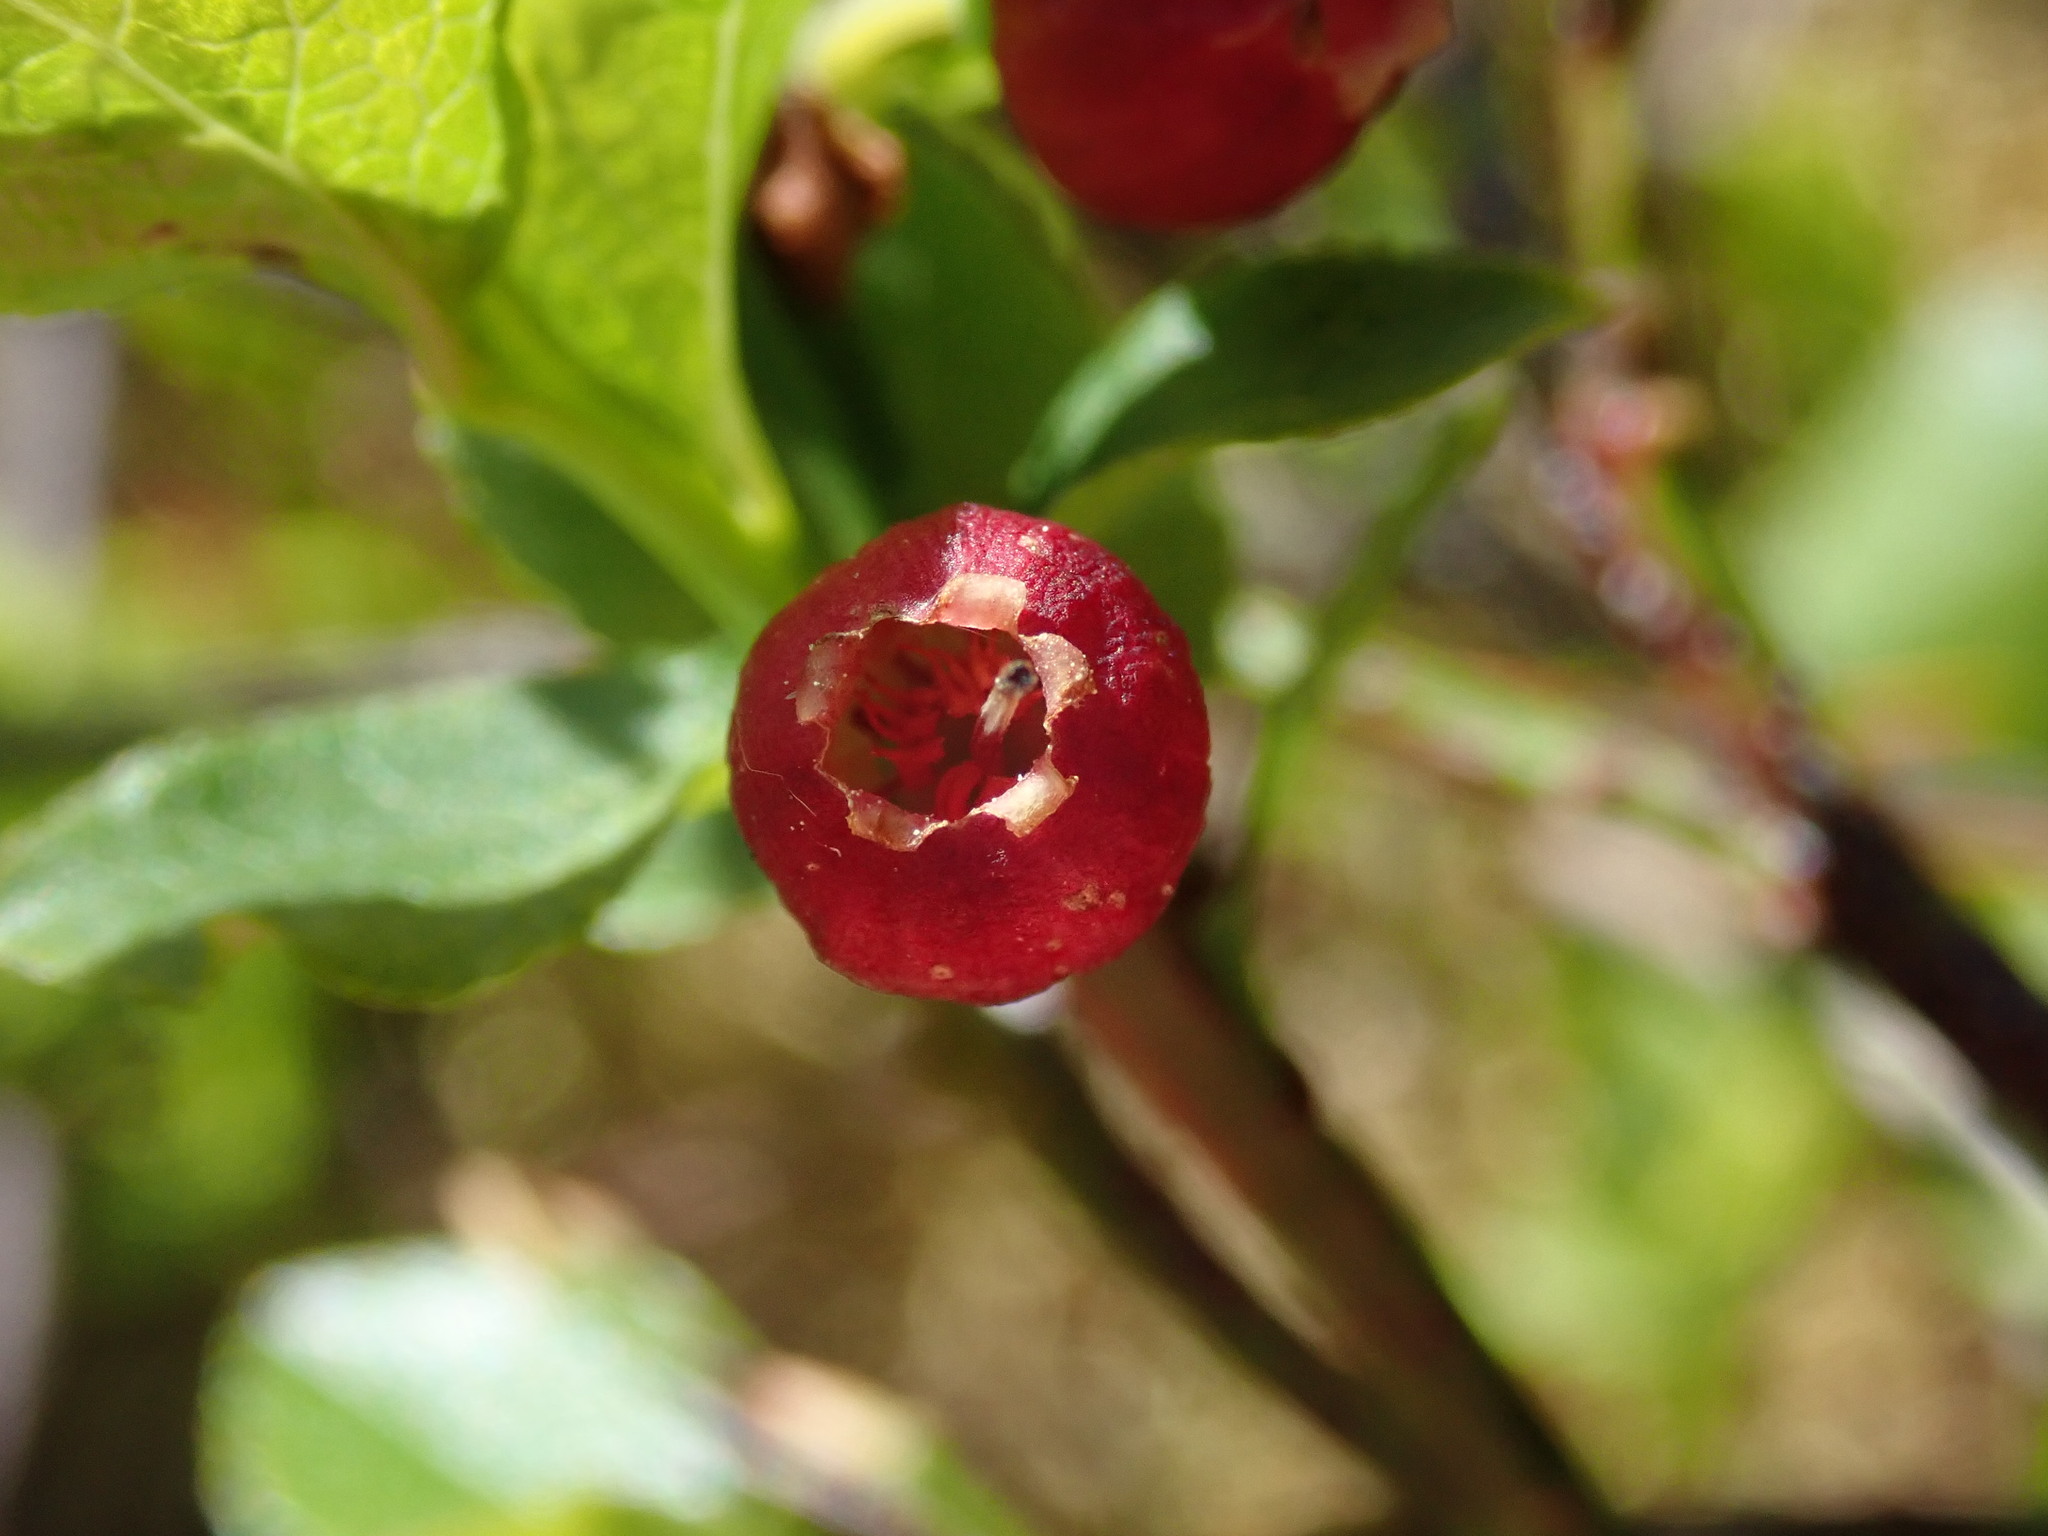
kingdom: Plantae
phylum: Tracheophyta
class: Magnoliopsida
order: Ericales
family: Ericaceae
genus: Vaccinium
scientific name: Vaccinium myrtillus
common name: Bilberry
